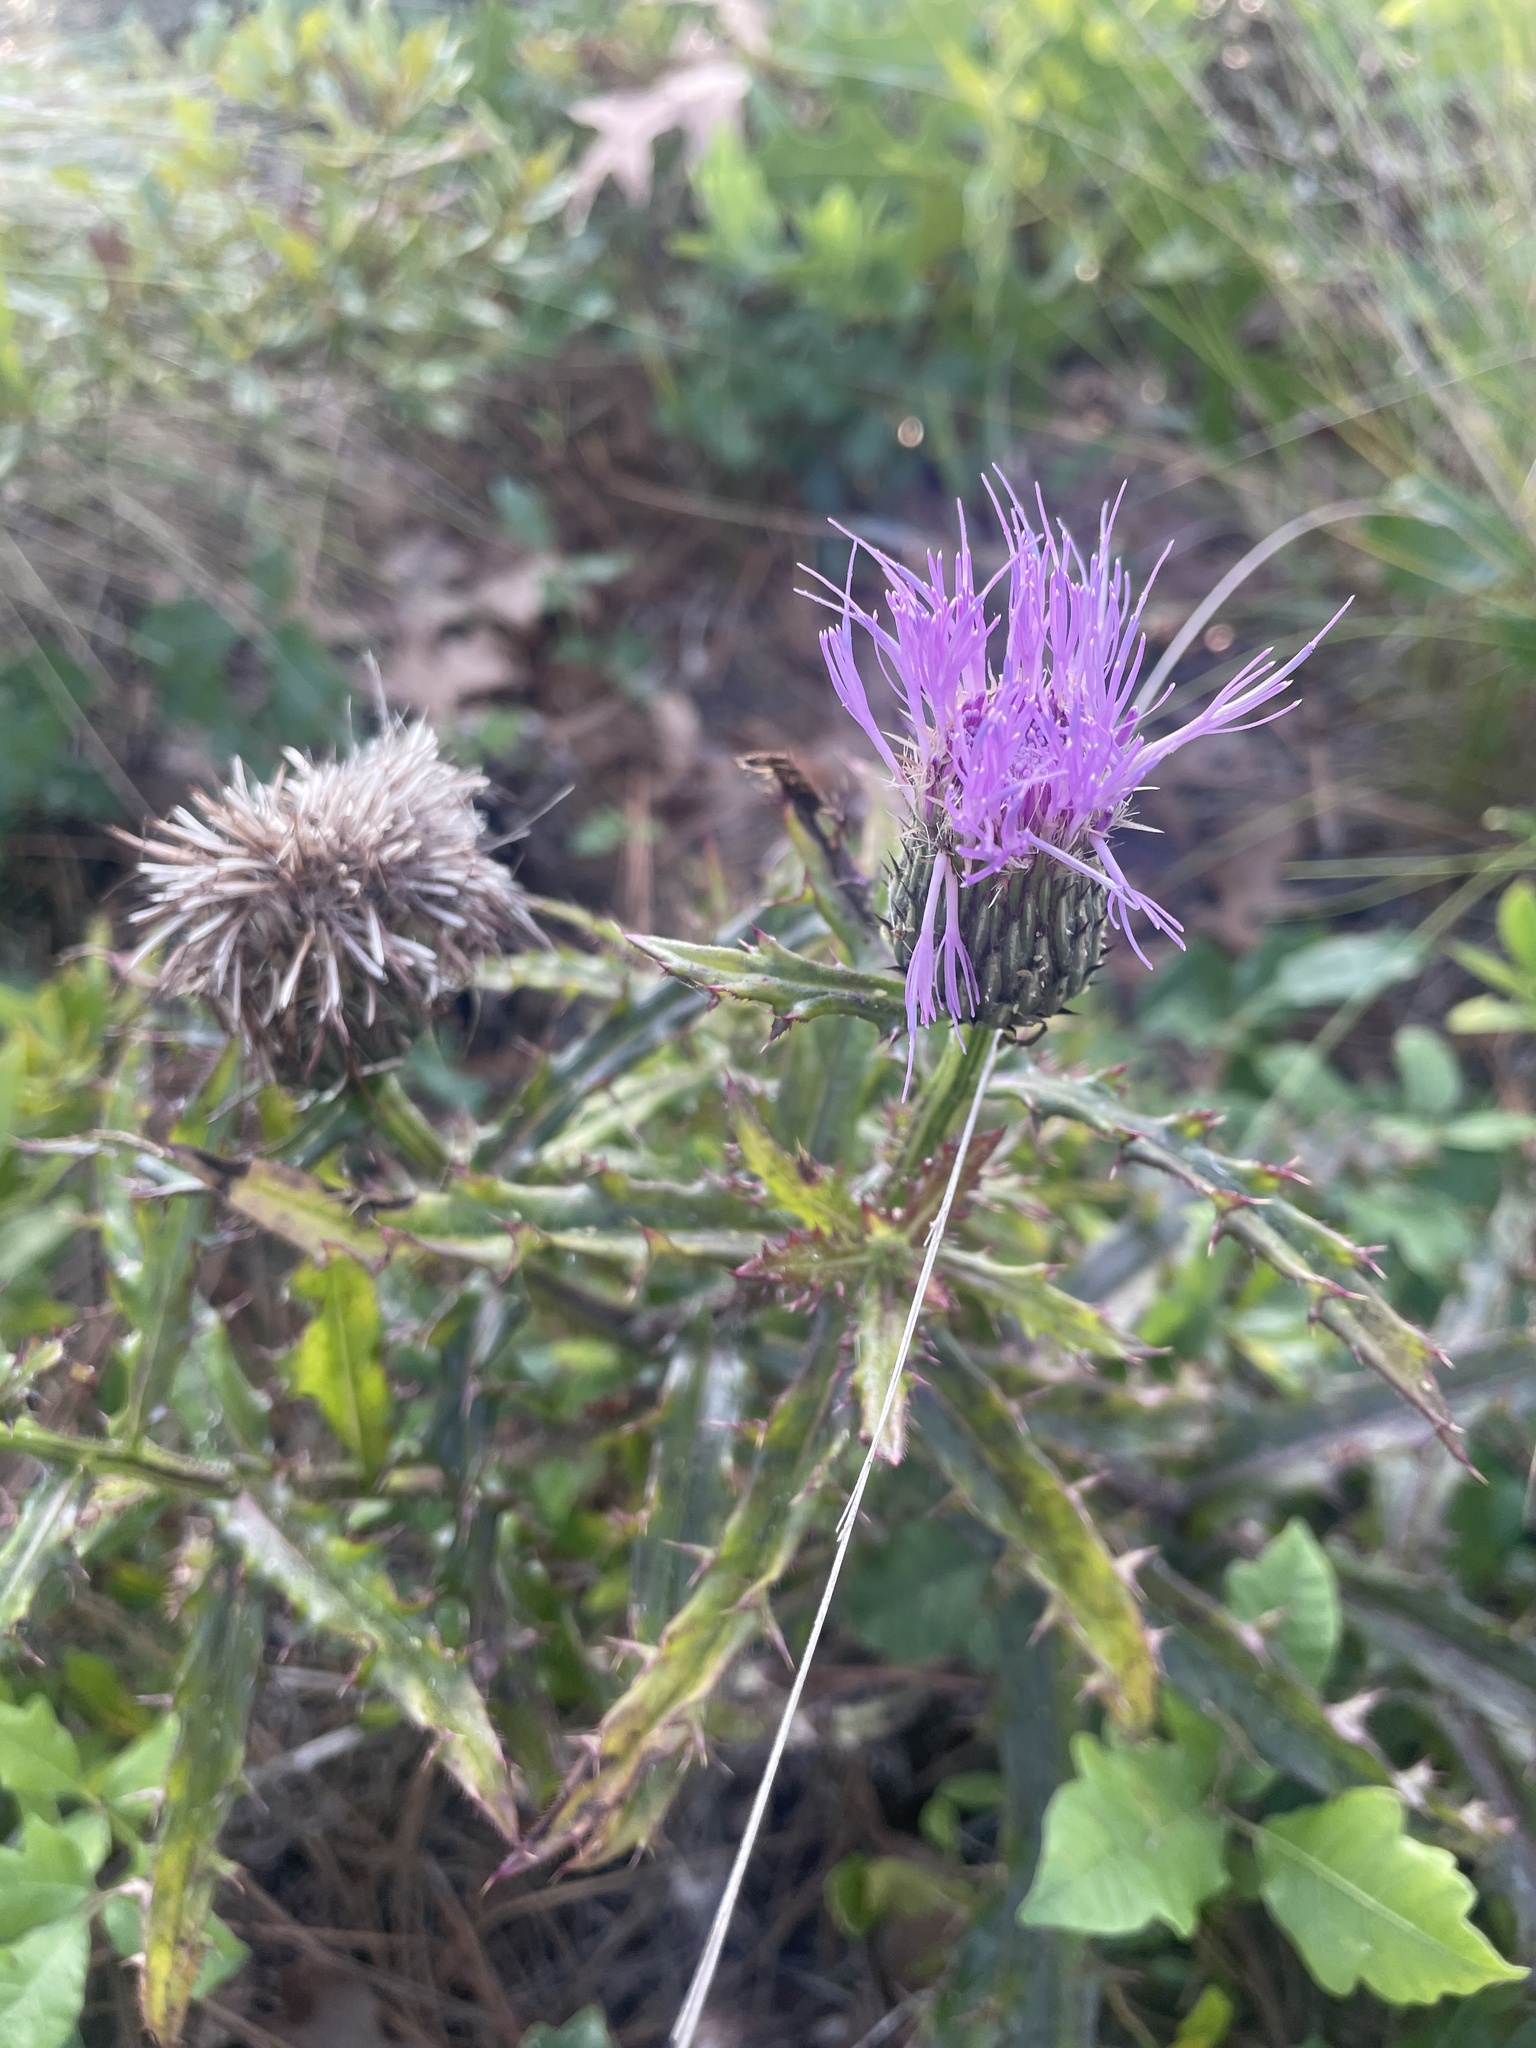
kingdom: Plantae
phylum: Tracheophyta
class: Magnoliopsida
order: Asterales
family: Asteraceae
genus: Cirsium
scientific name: Cirsium repandum
